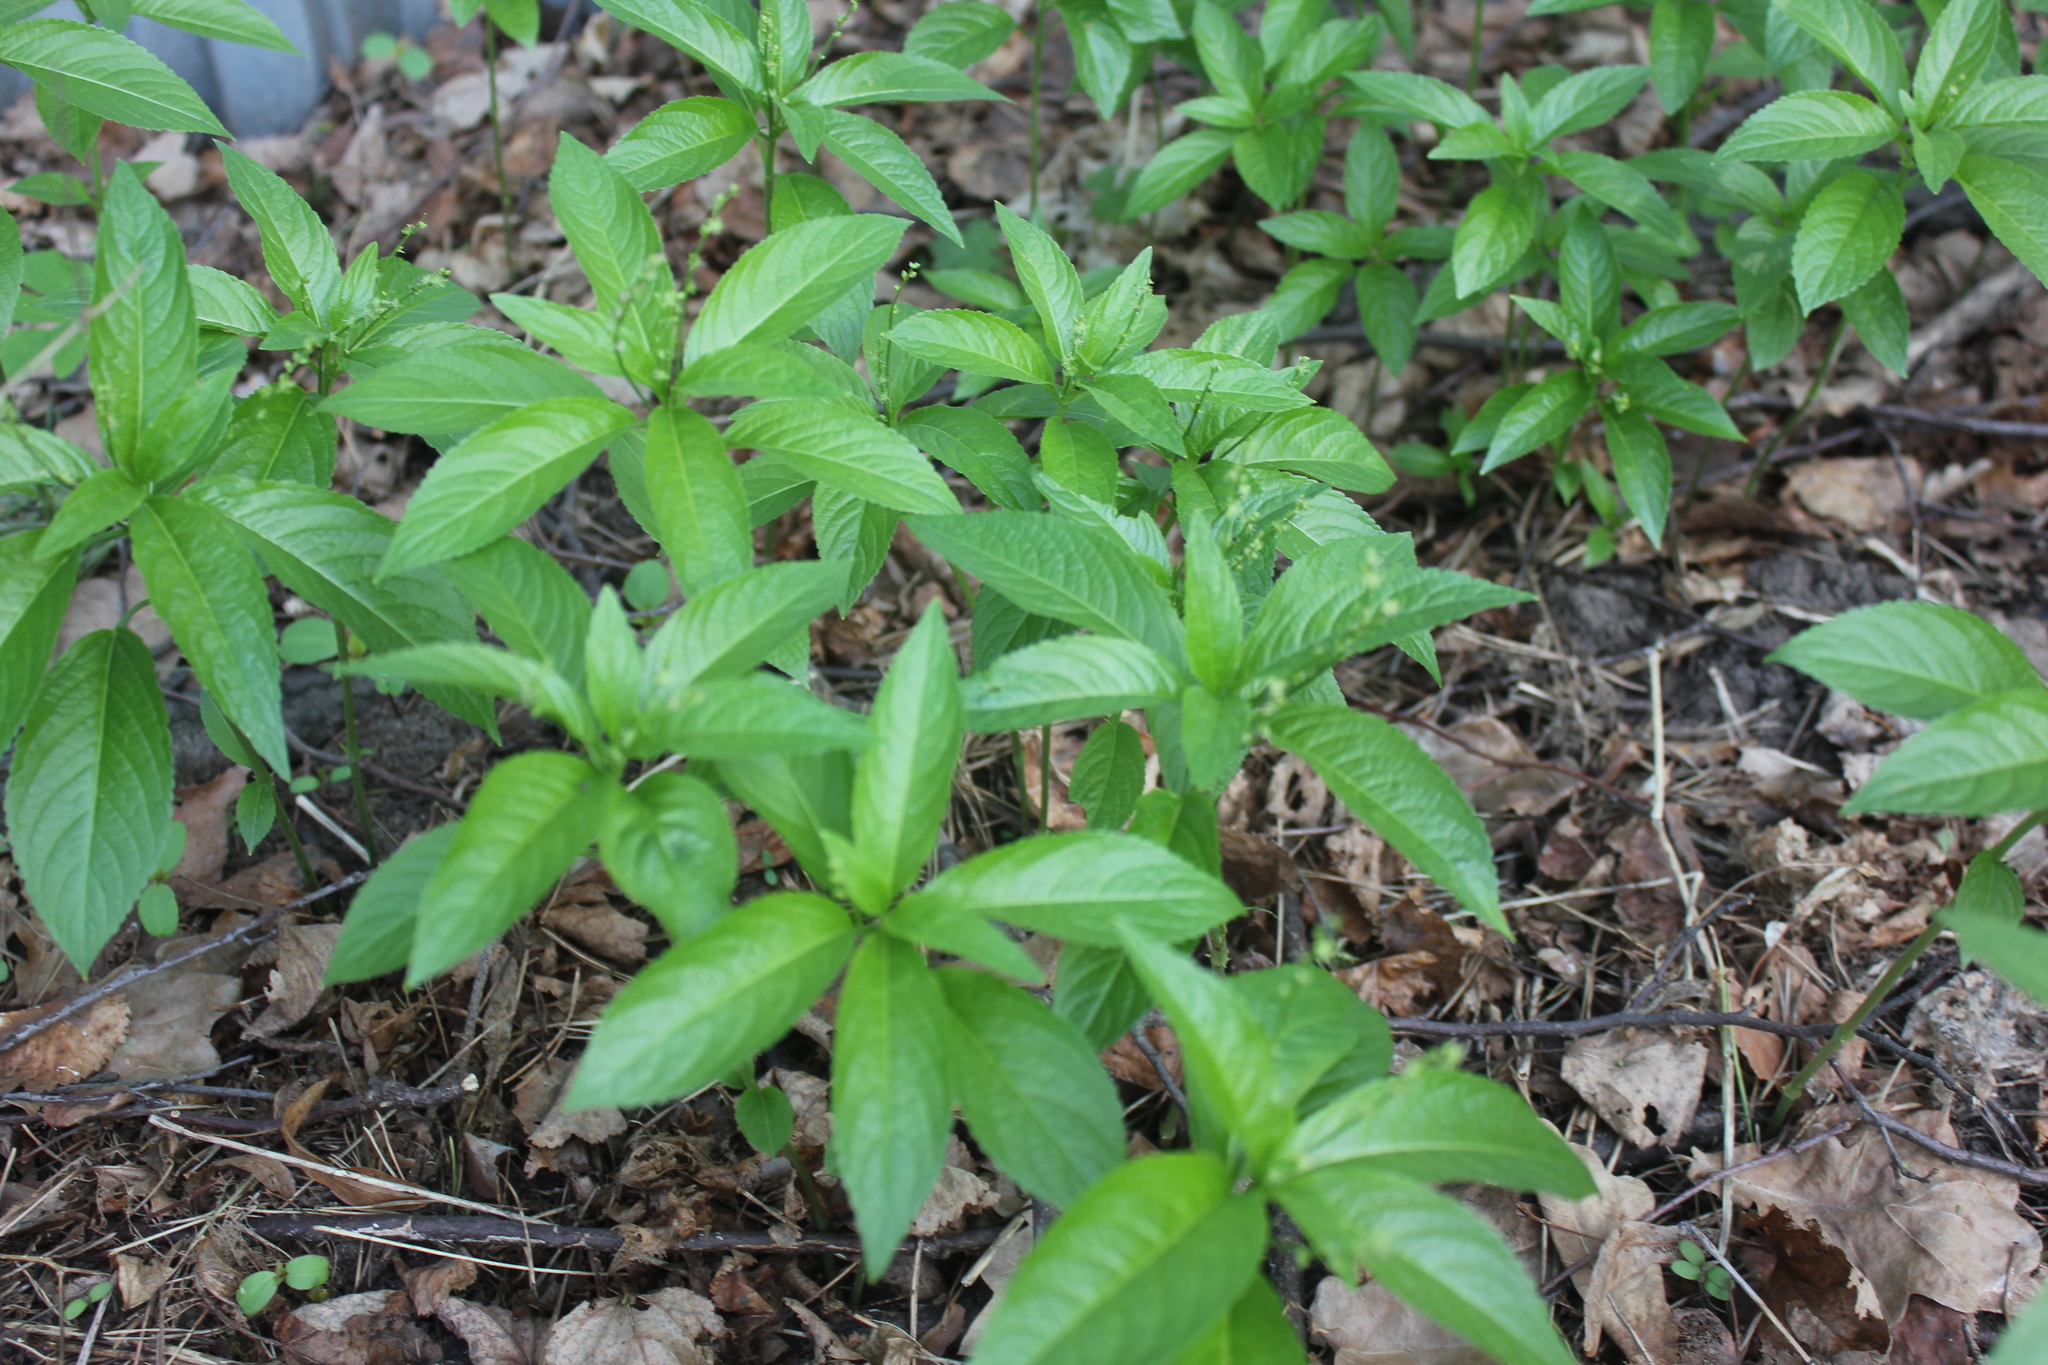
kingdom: Plantae
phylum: Tracheophyta
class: Magnoliopsida
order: Malpighiales
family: Euphorbiaceae
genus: Mercurialis
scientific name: Mercurialis perennis
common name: Dog mercury
